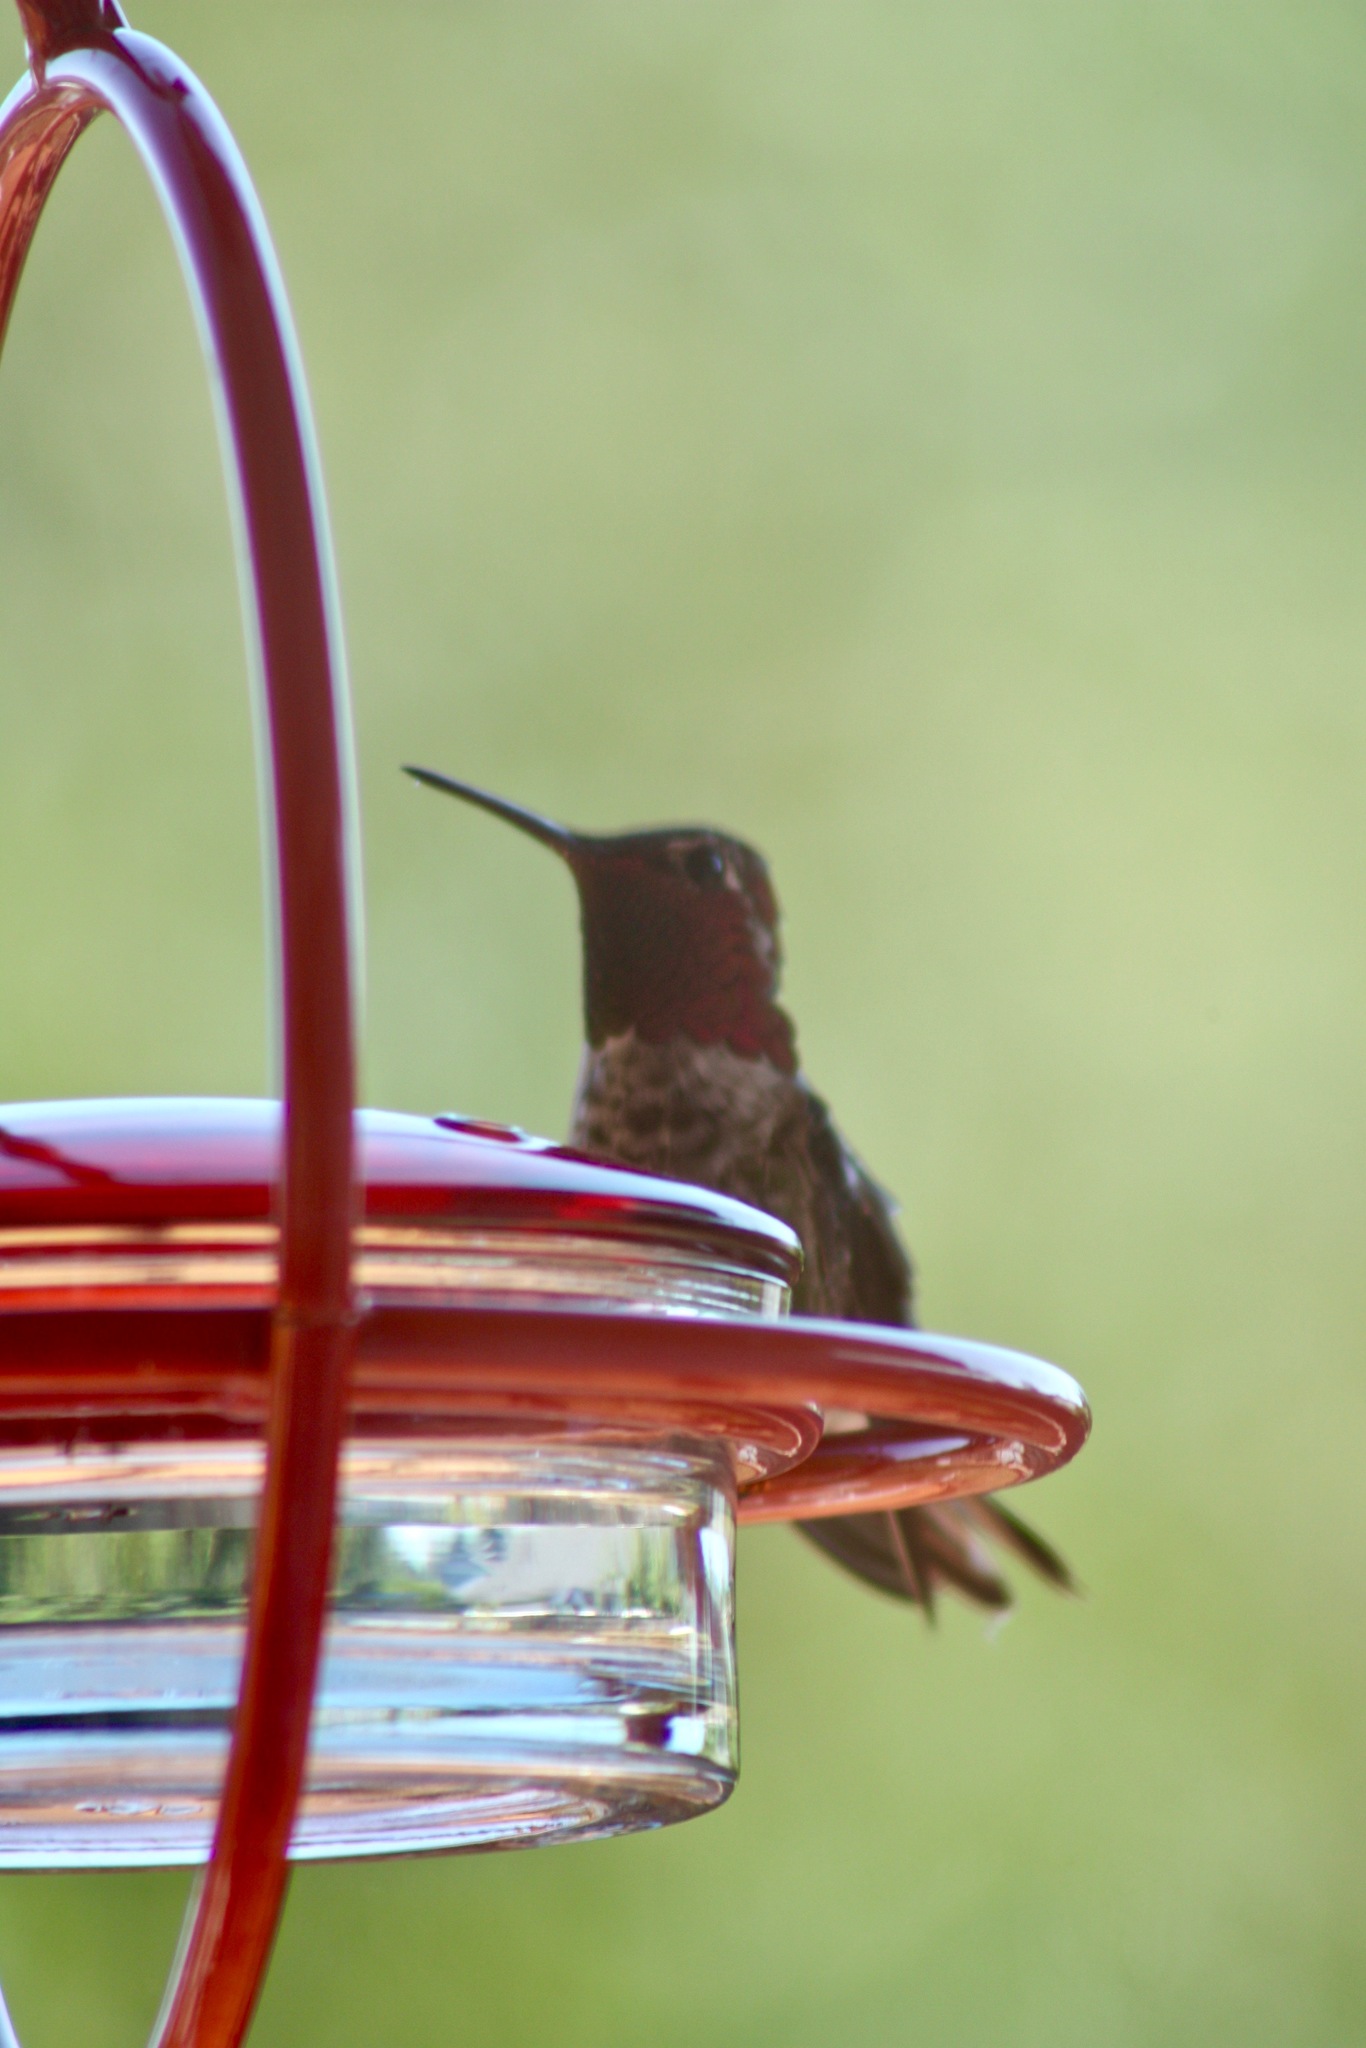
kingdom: Animalia
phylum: Chordata
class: Aves
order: Apodiformes
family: Trochilidae
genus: Calypte
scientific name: Calypte anna
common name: Anna's hummingbird
